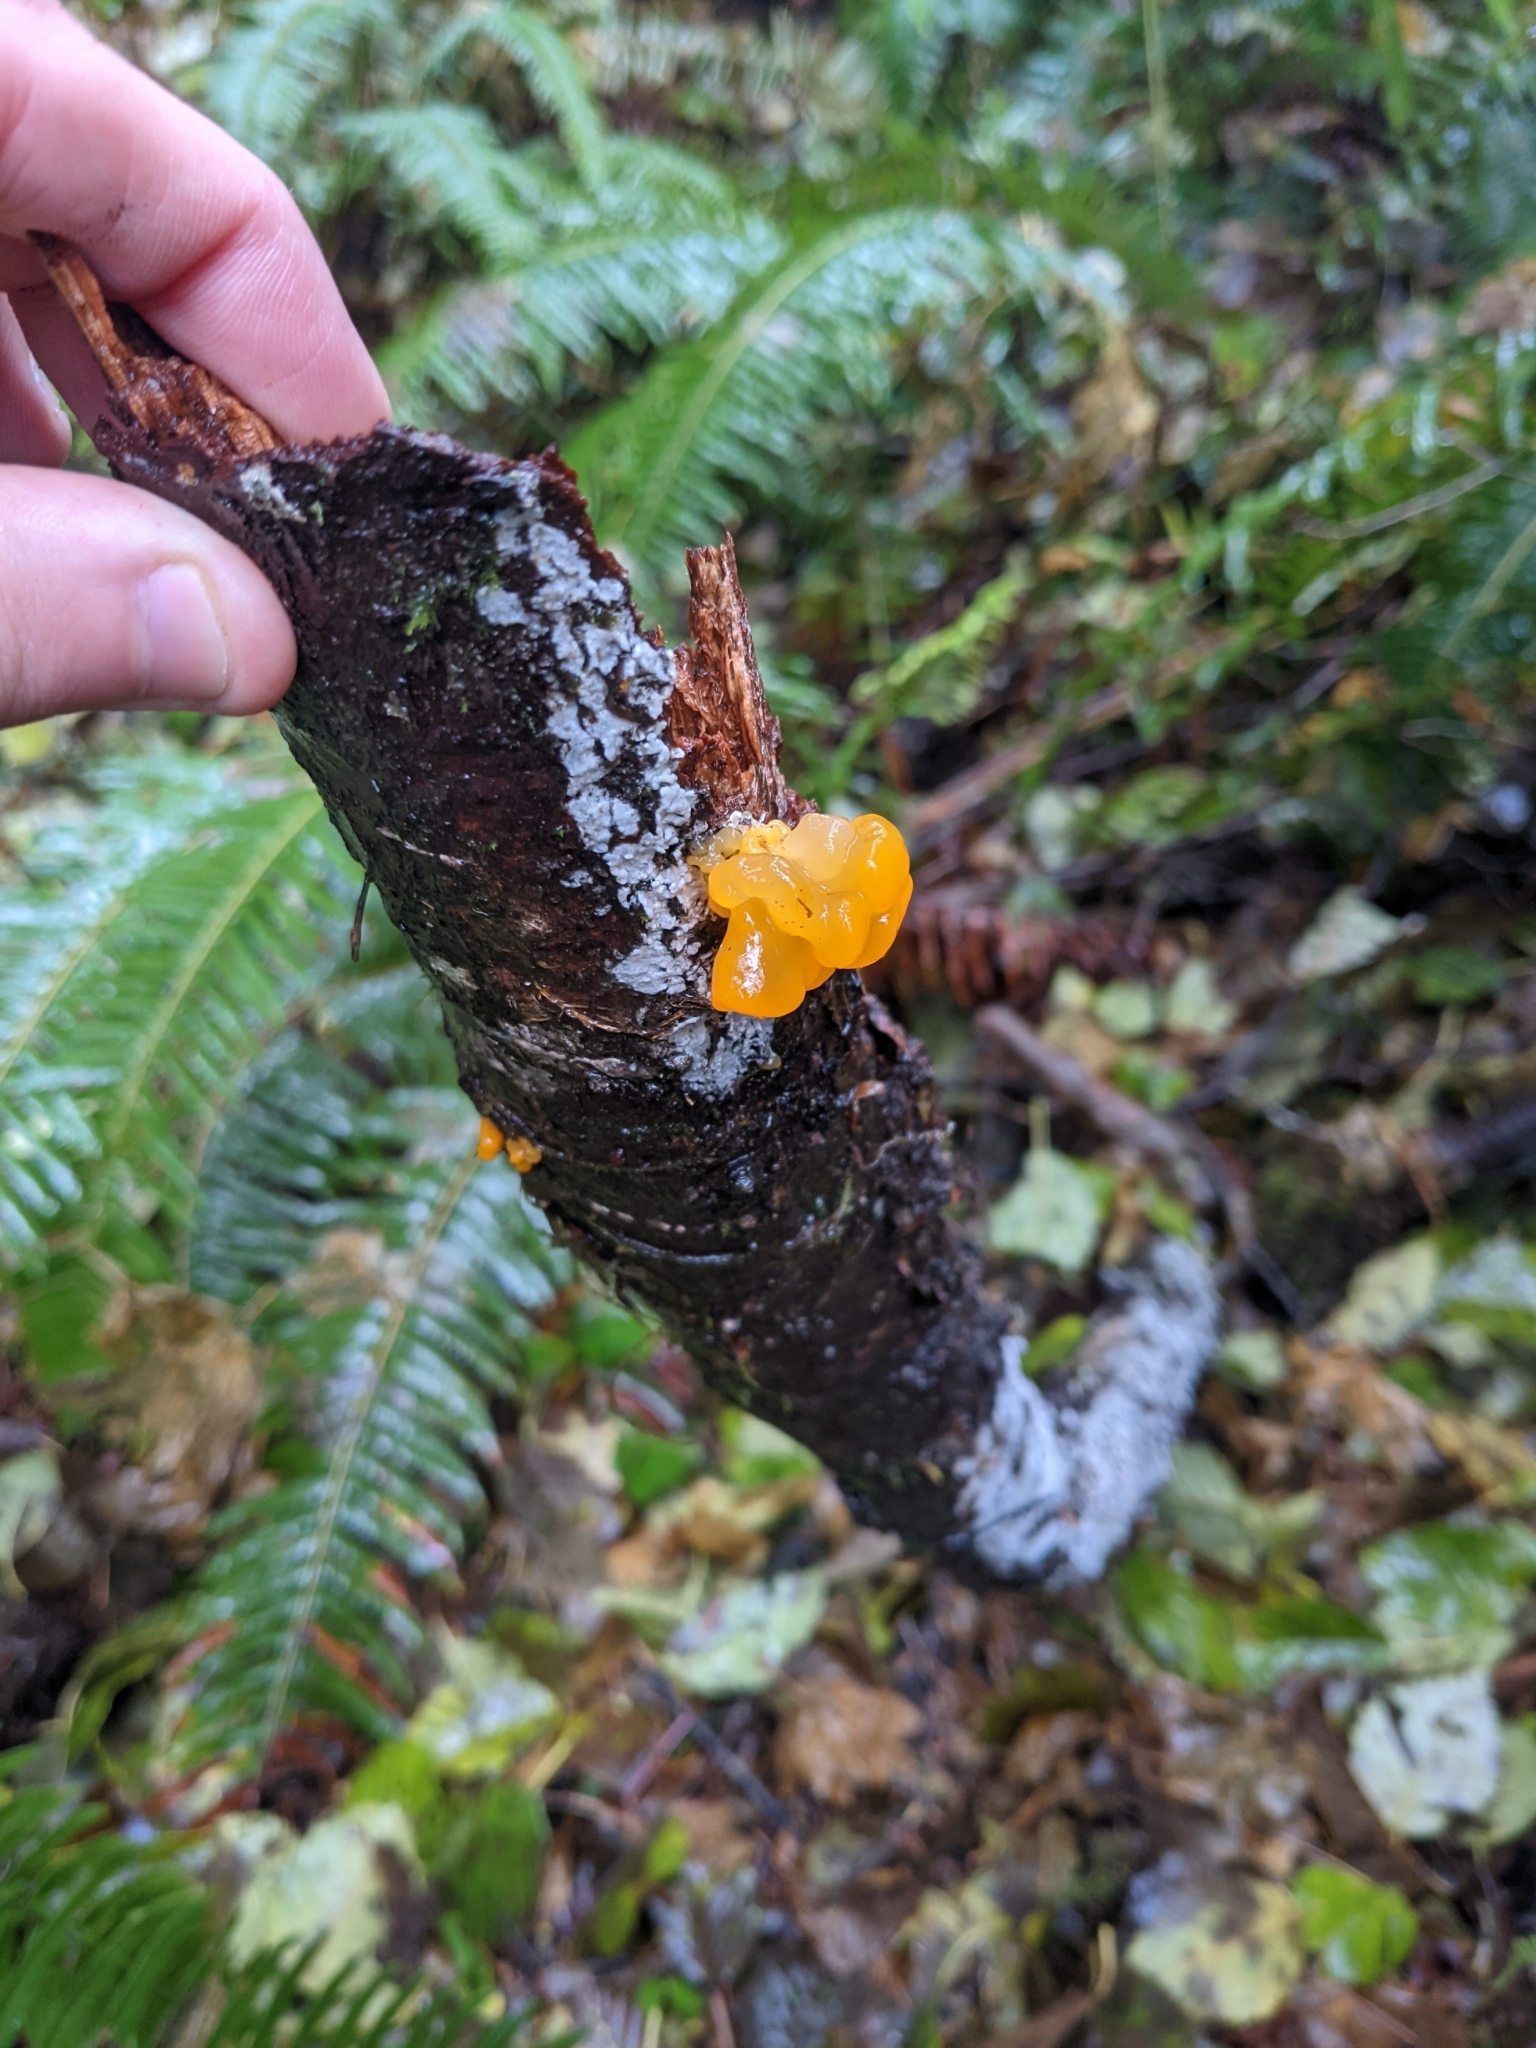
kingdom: Fungi
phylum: Basidiomycota
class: Tremellomycetes
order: Tremellales
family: Tremellaceae
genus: Tremella
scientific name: Tremella mesenterica
